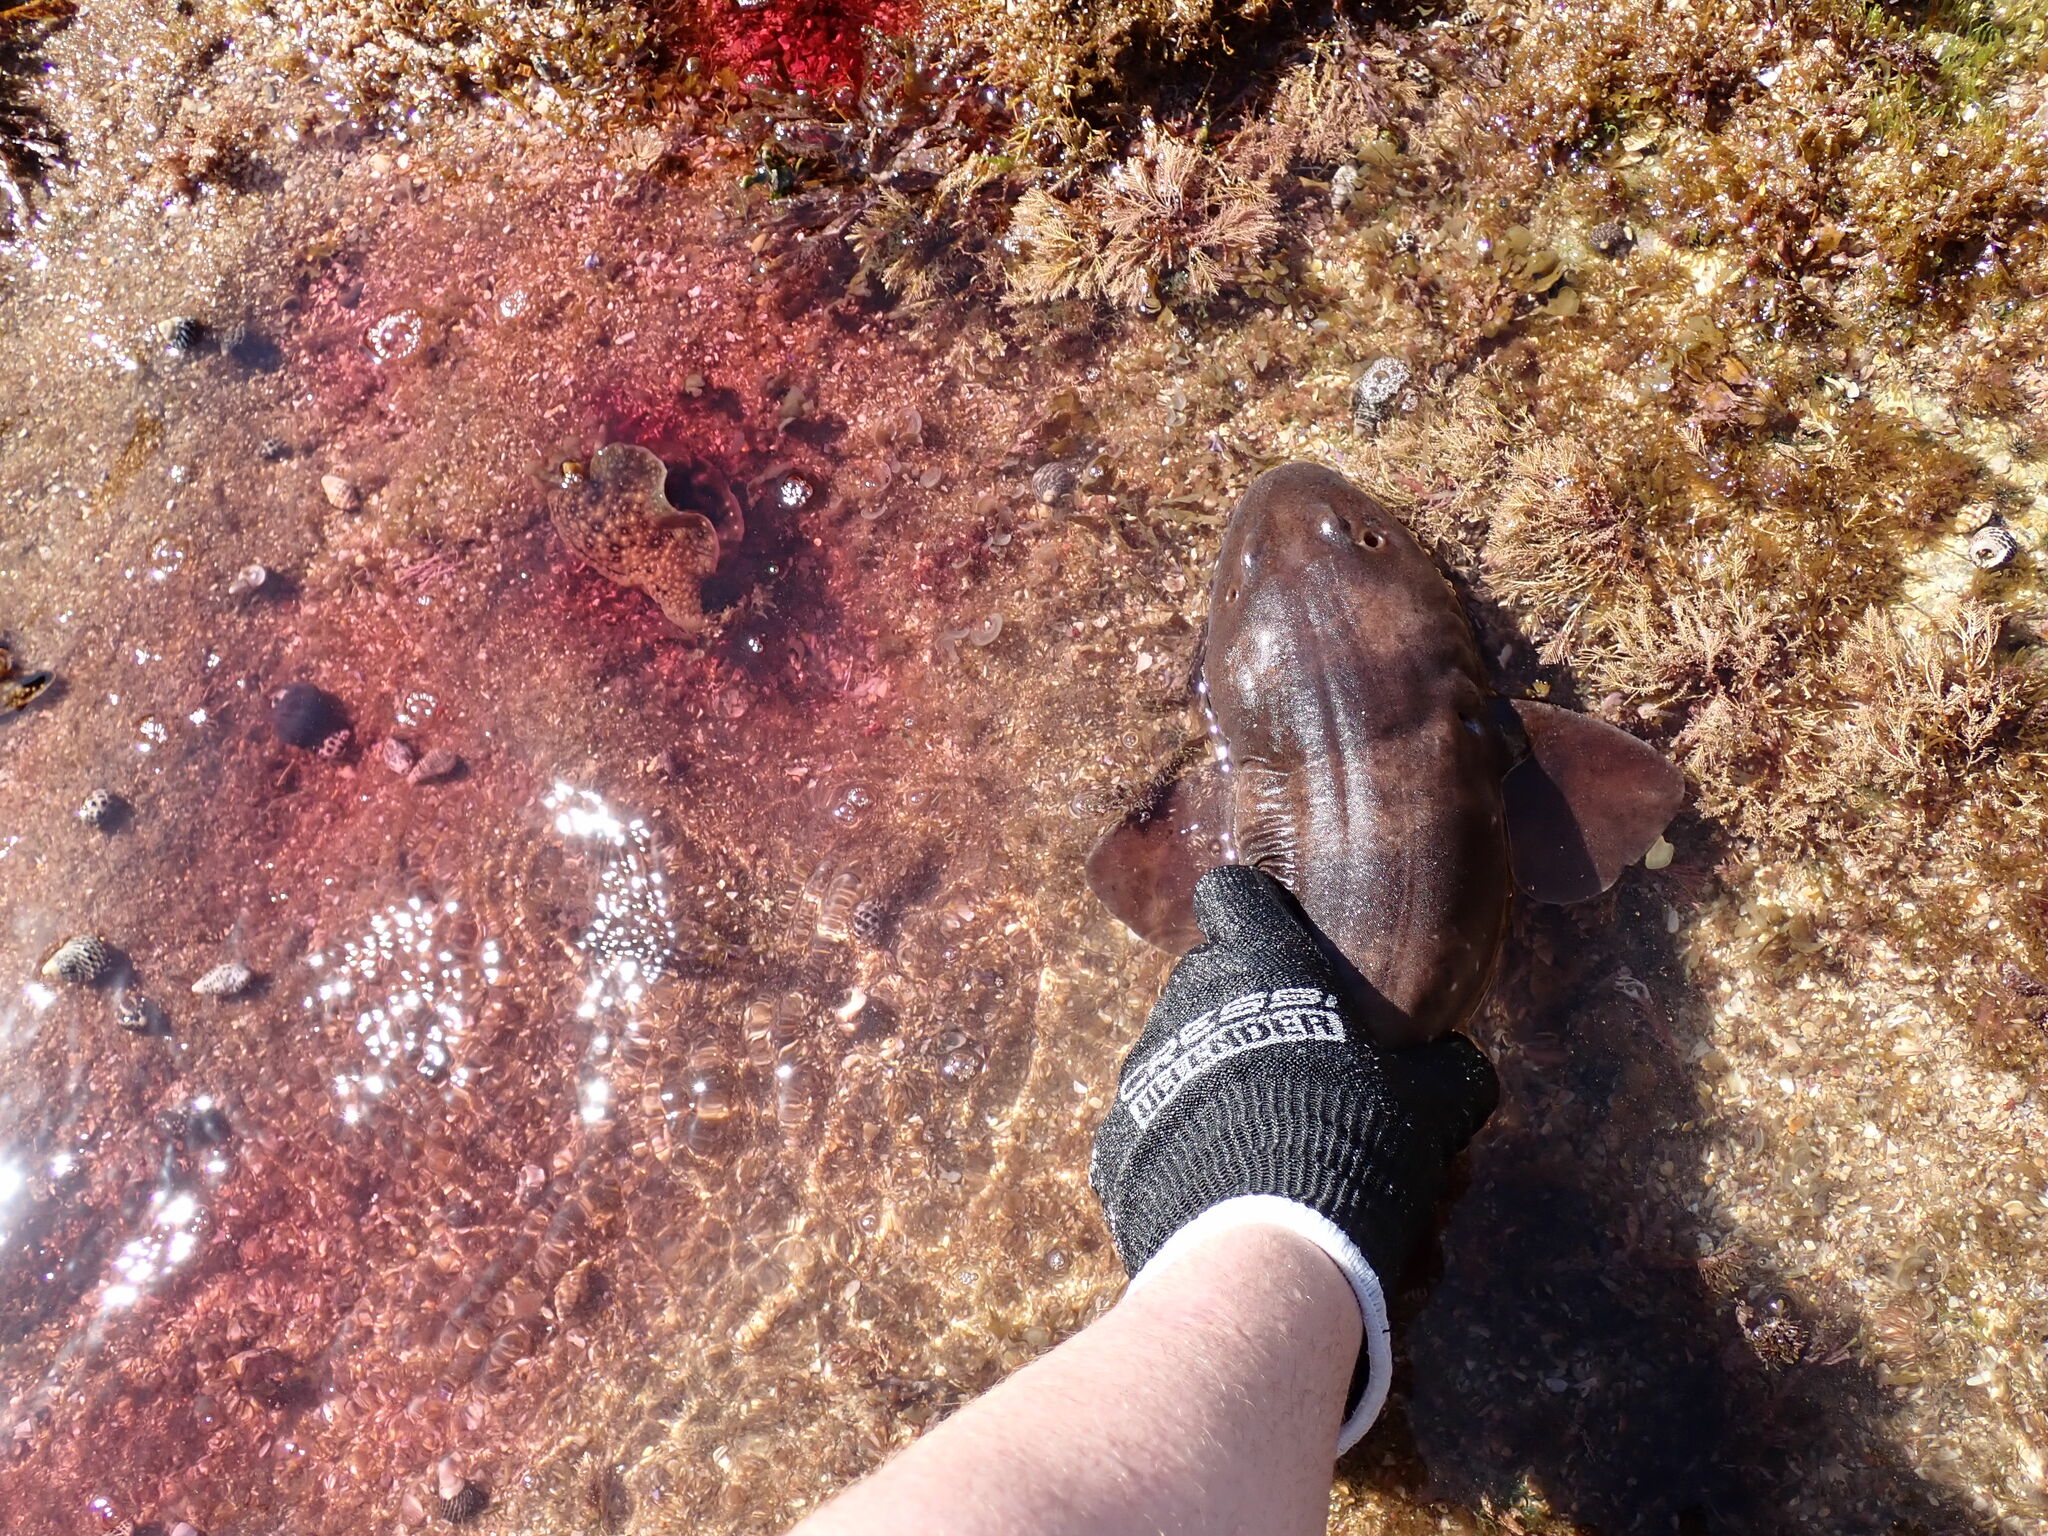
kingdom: Animalia
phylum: Mollusca
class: Gastropoda
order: Aplysiida
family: Aplysiidae
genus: Aplysia
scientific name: Aplysia argus
